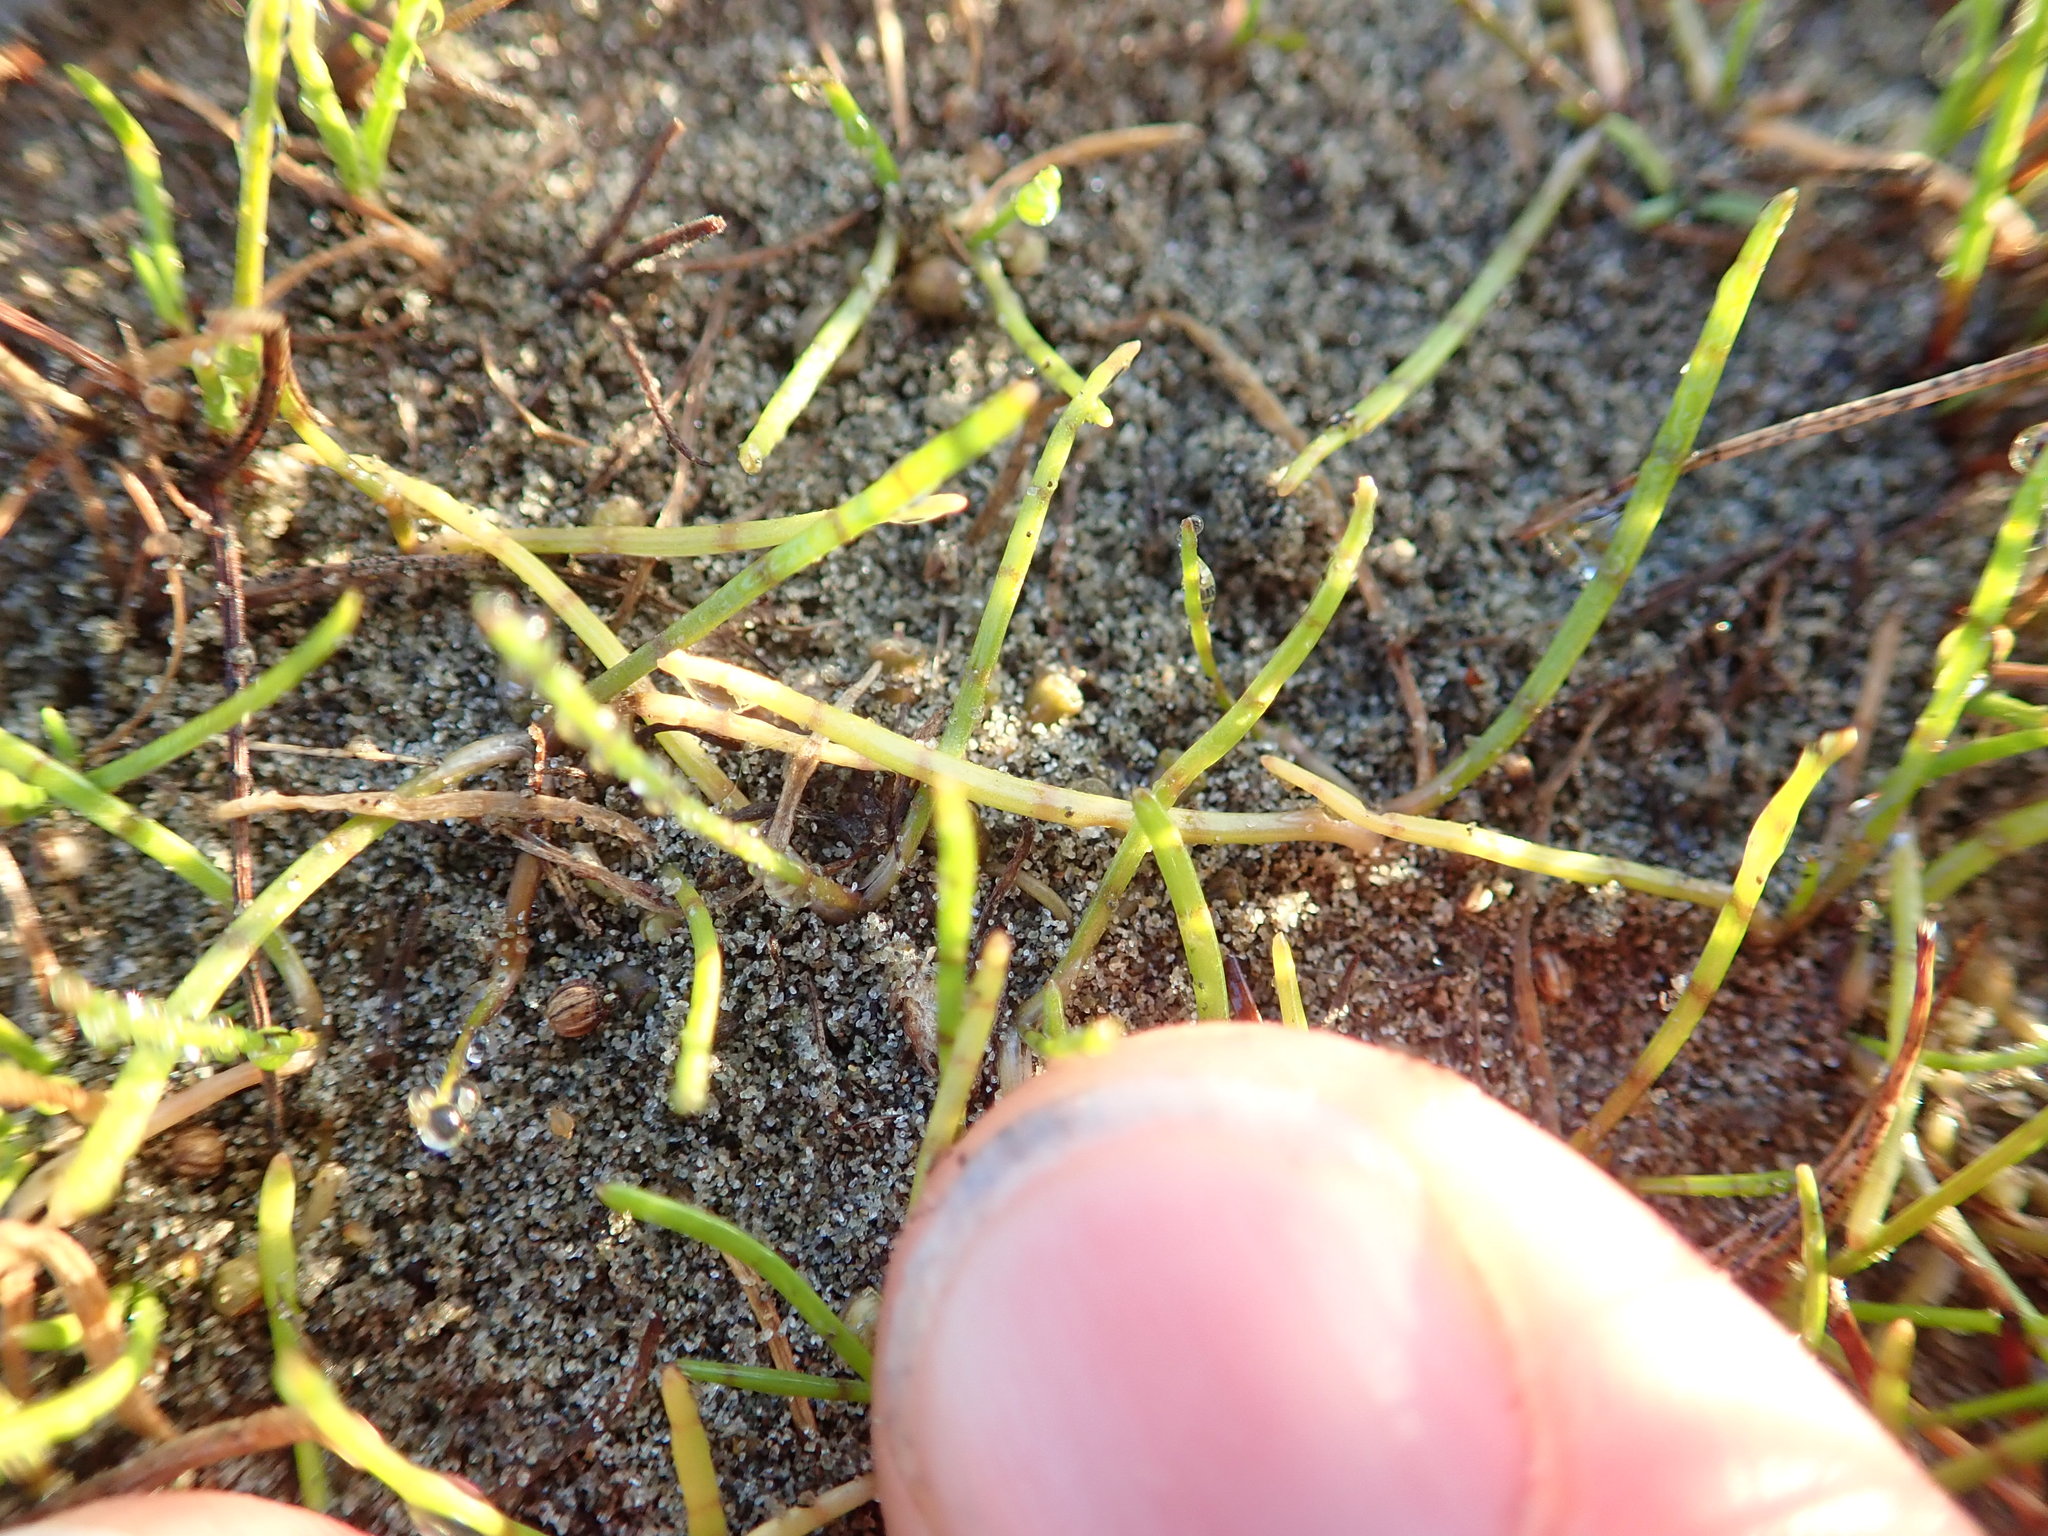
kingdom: Plantae
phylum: Tracheophyta
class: Magnoliopsida
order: Apiales
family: Apiaceae
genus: Lilaeopsis
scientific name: Lilaeopsis novae-zelandiae
